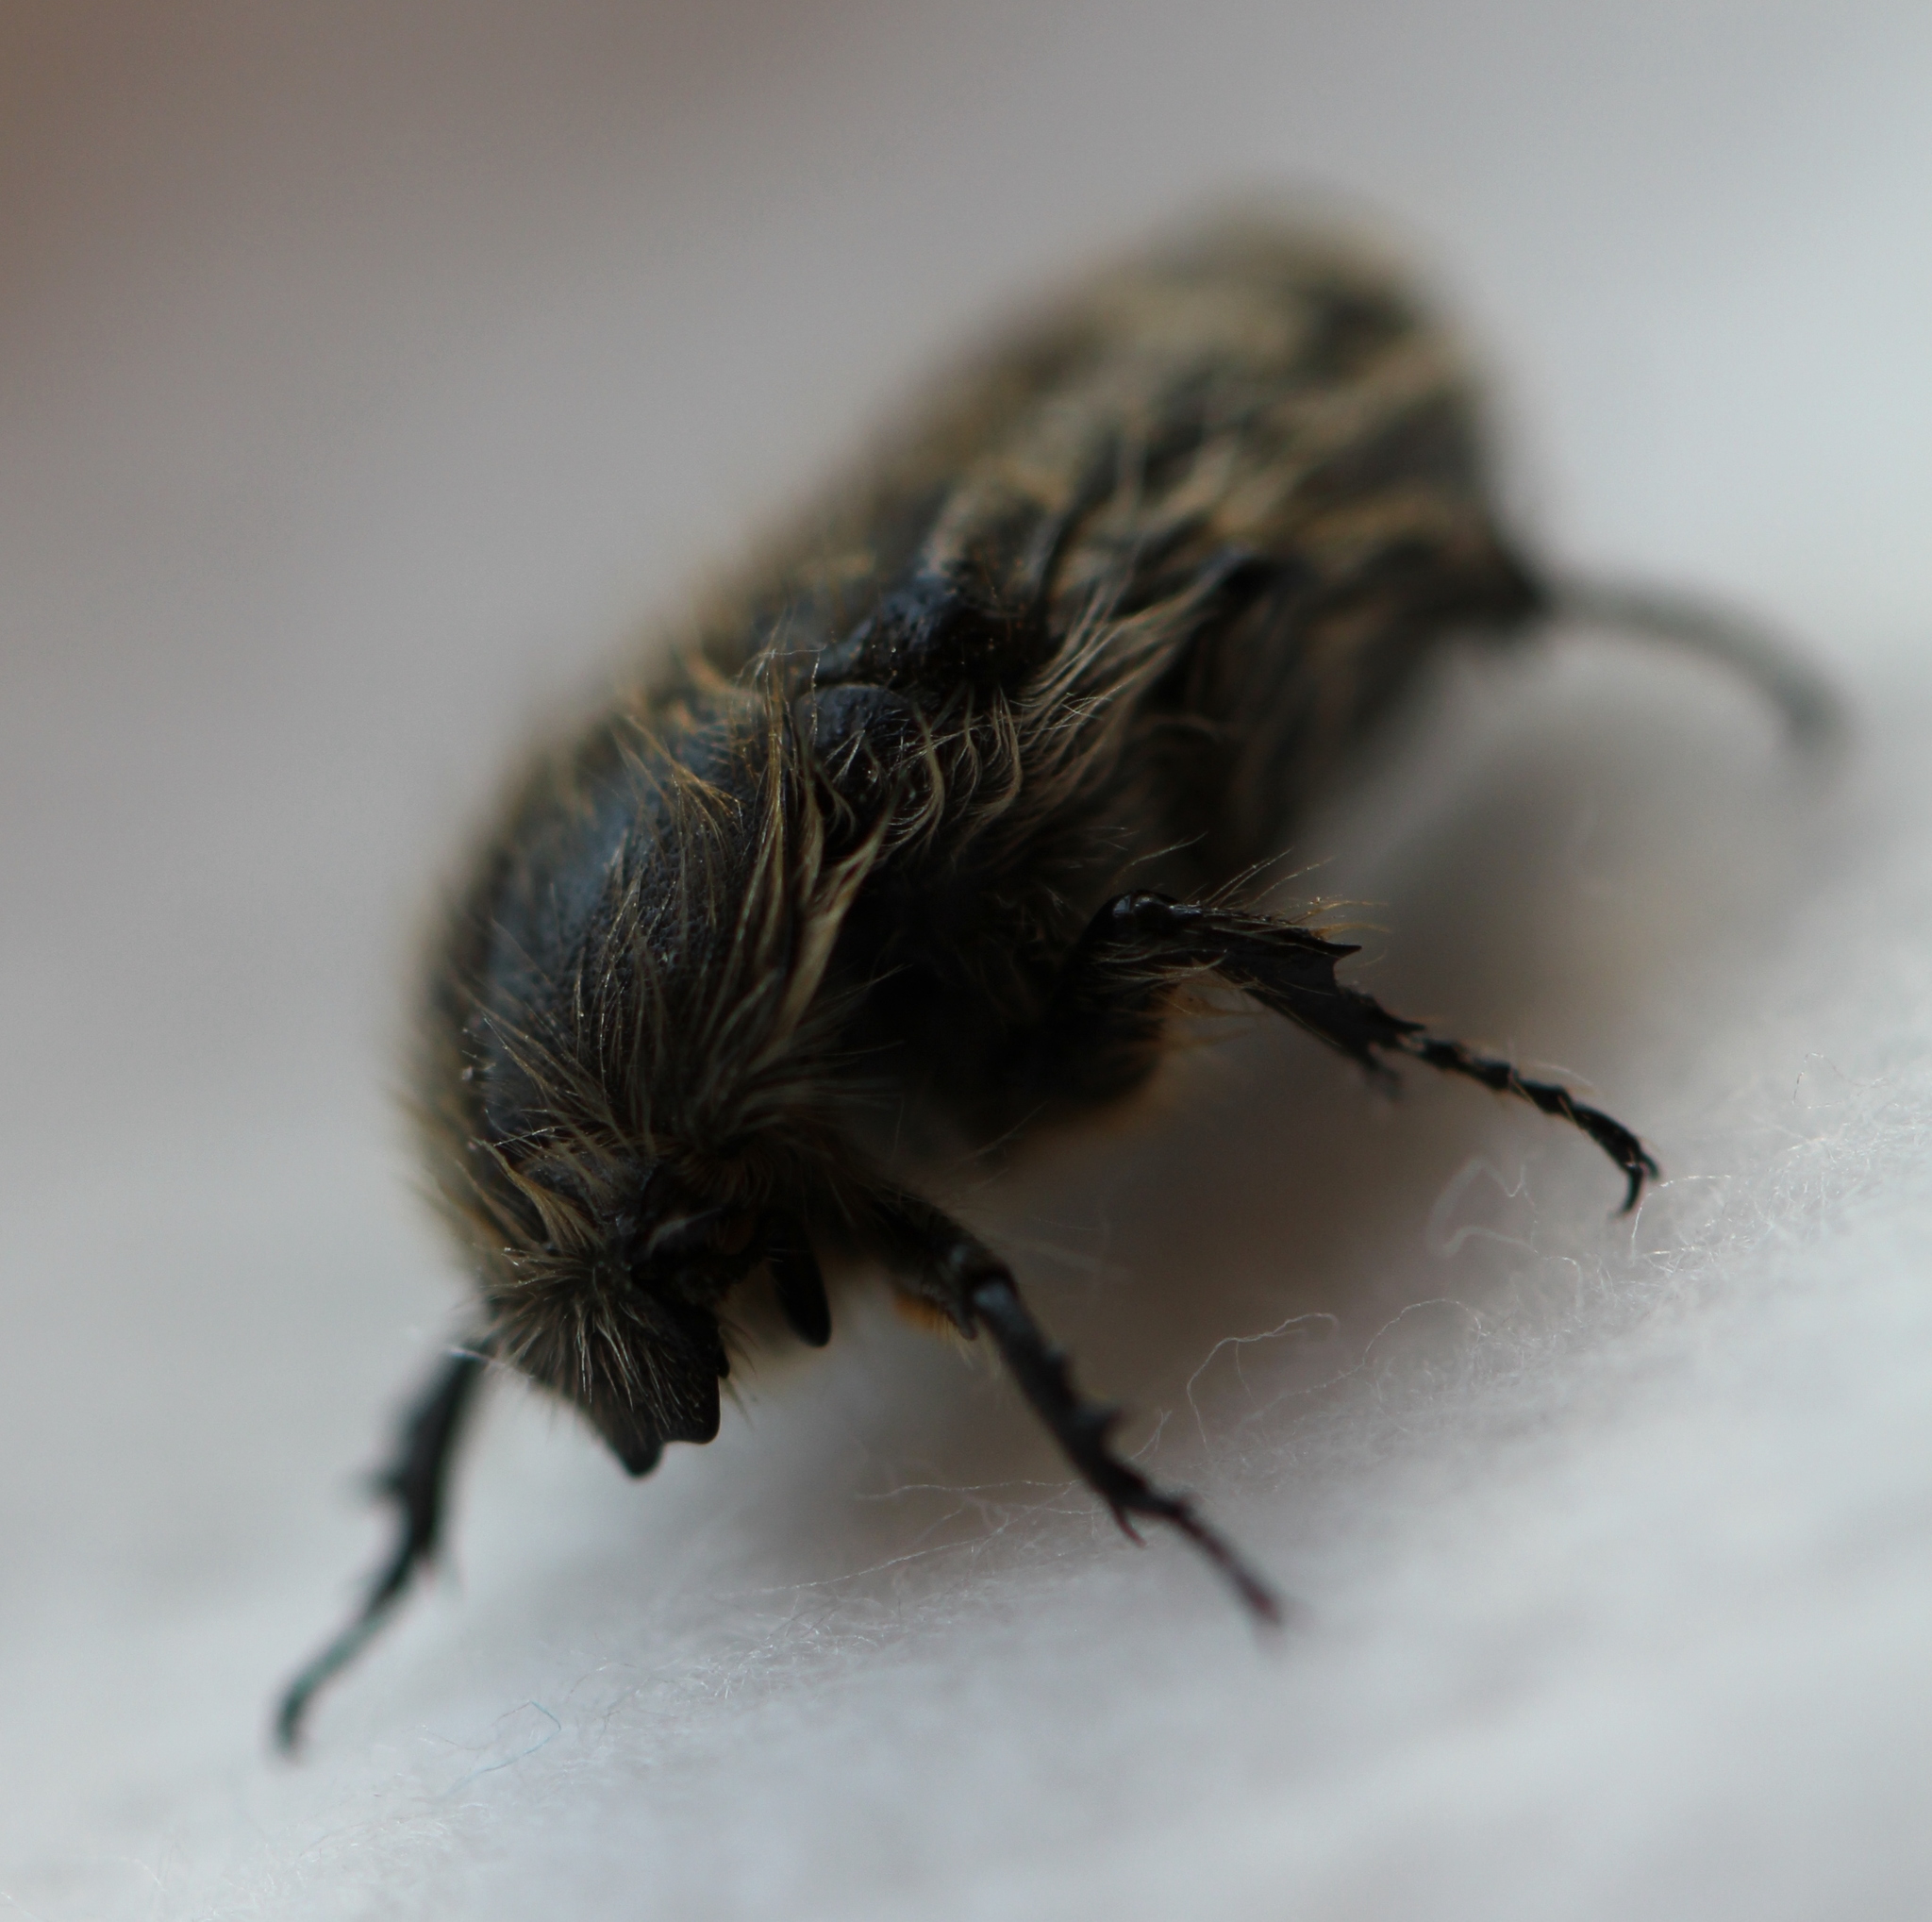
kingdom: Animalia
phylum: Arthropoda
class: Insecta
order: Coleoptera
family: Scarabaeidae
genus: Tropinota
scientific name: Tropinota hirta
